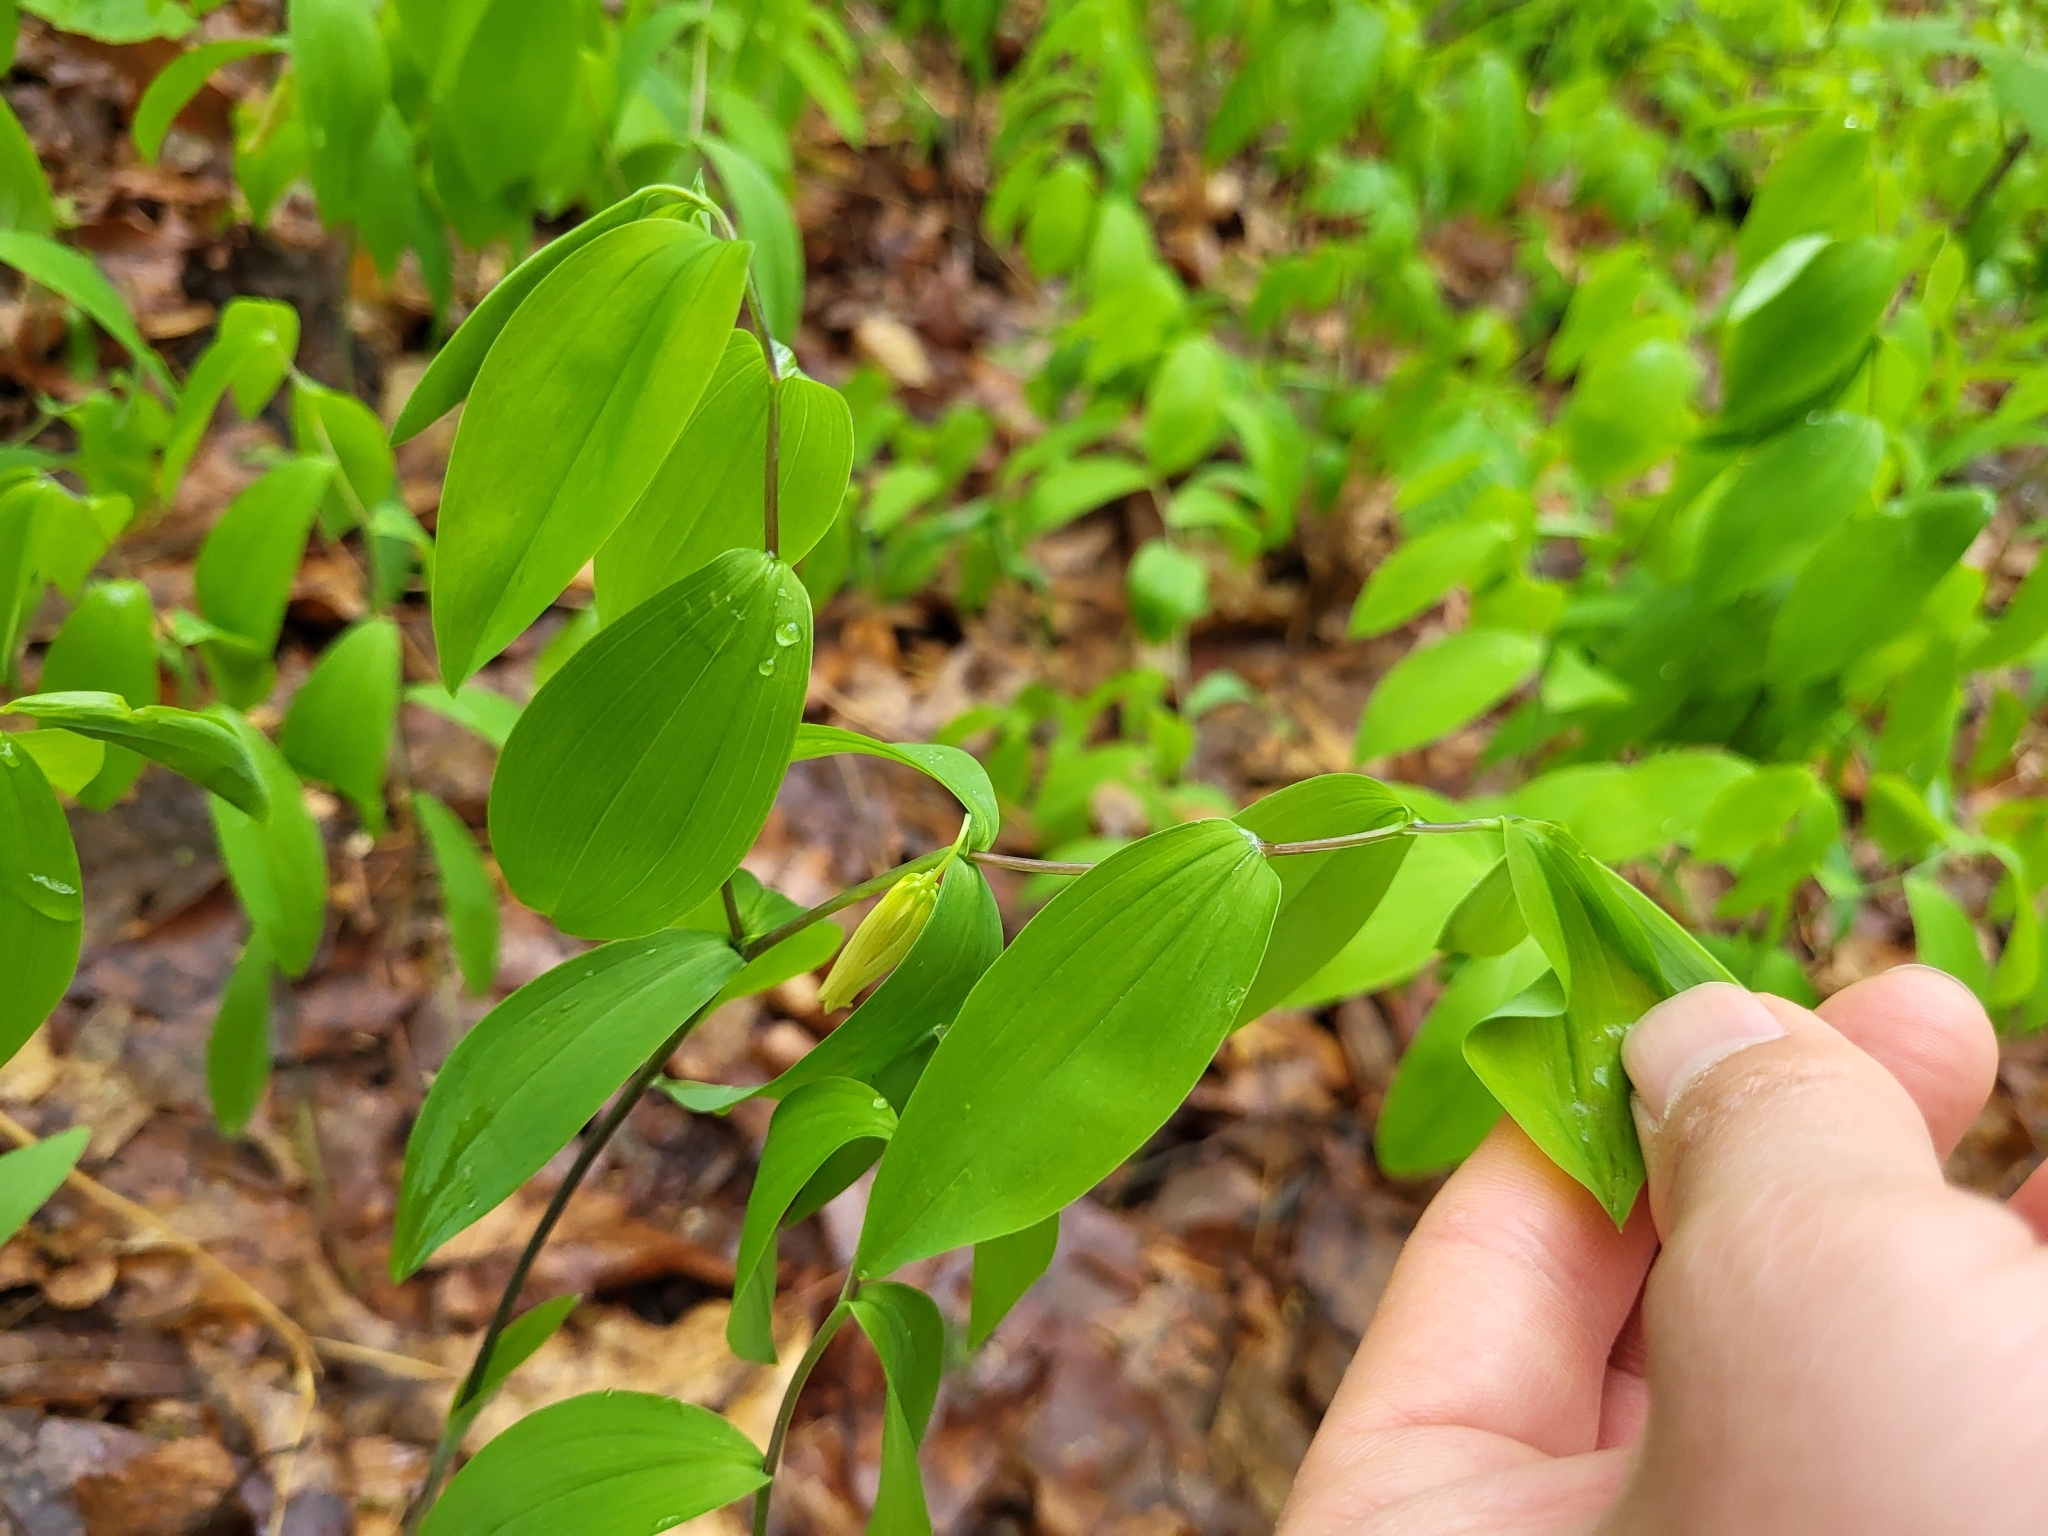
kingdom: Plantae
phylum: Tracheophyta
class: Liliopsida
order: Liliales
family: Colchicaceae
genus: Uvularia
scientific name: Uvularia sessilifolia
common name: Straw-lily
